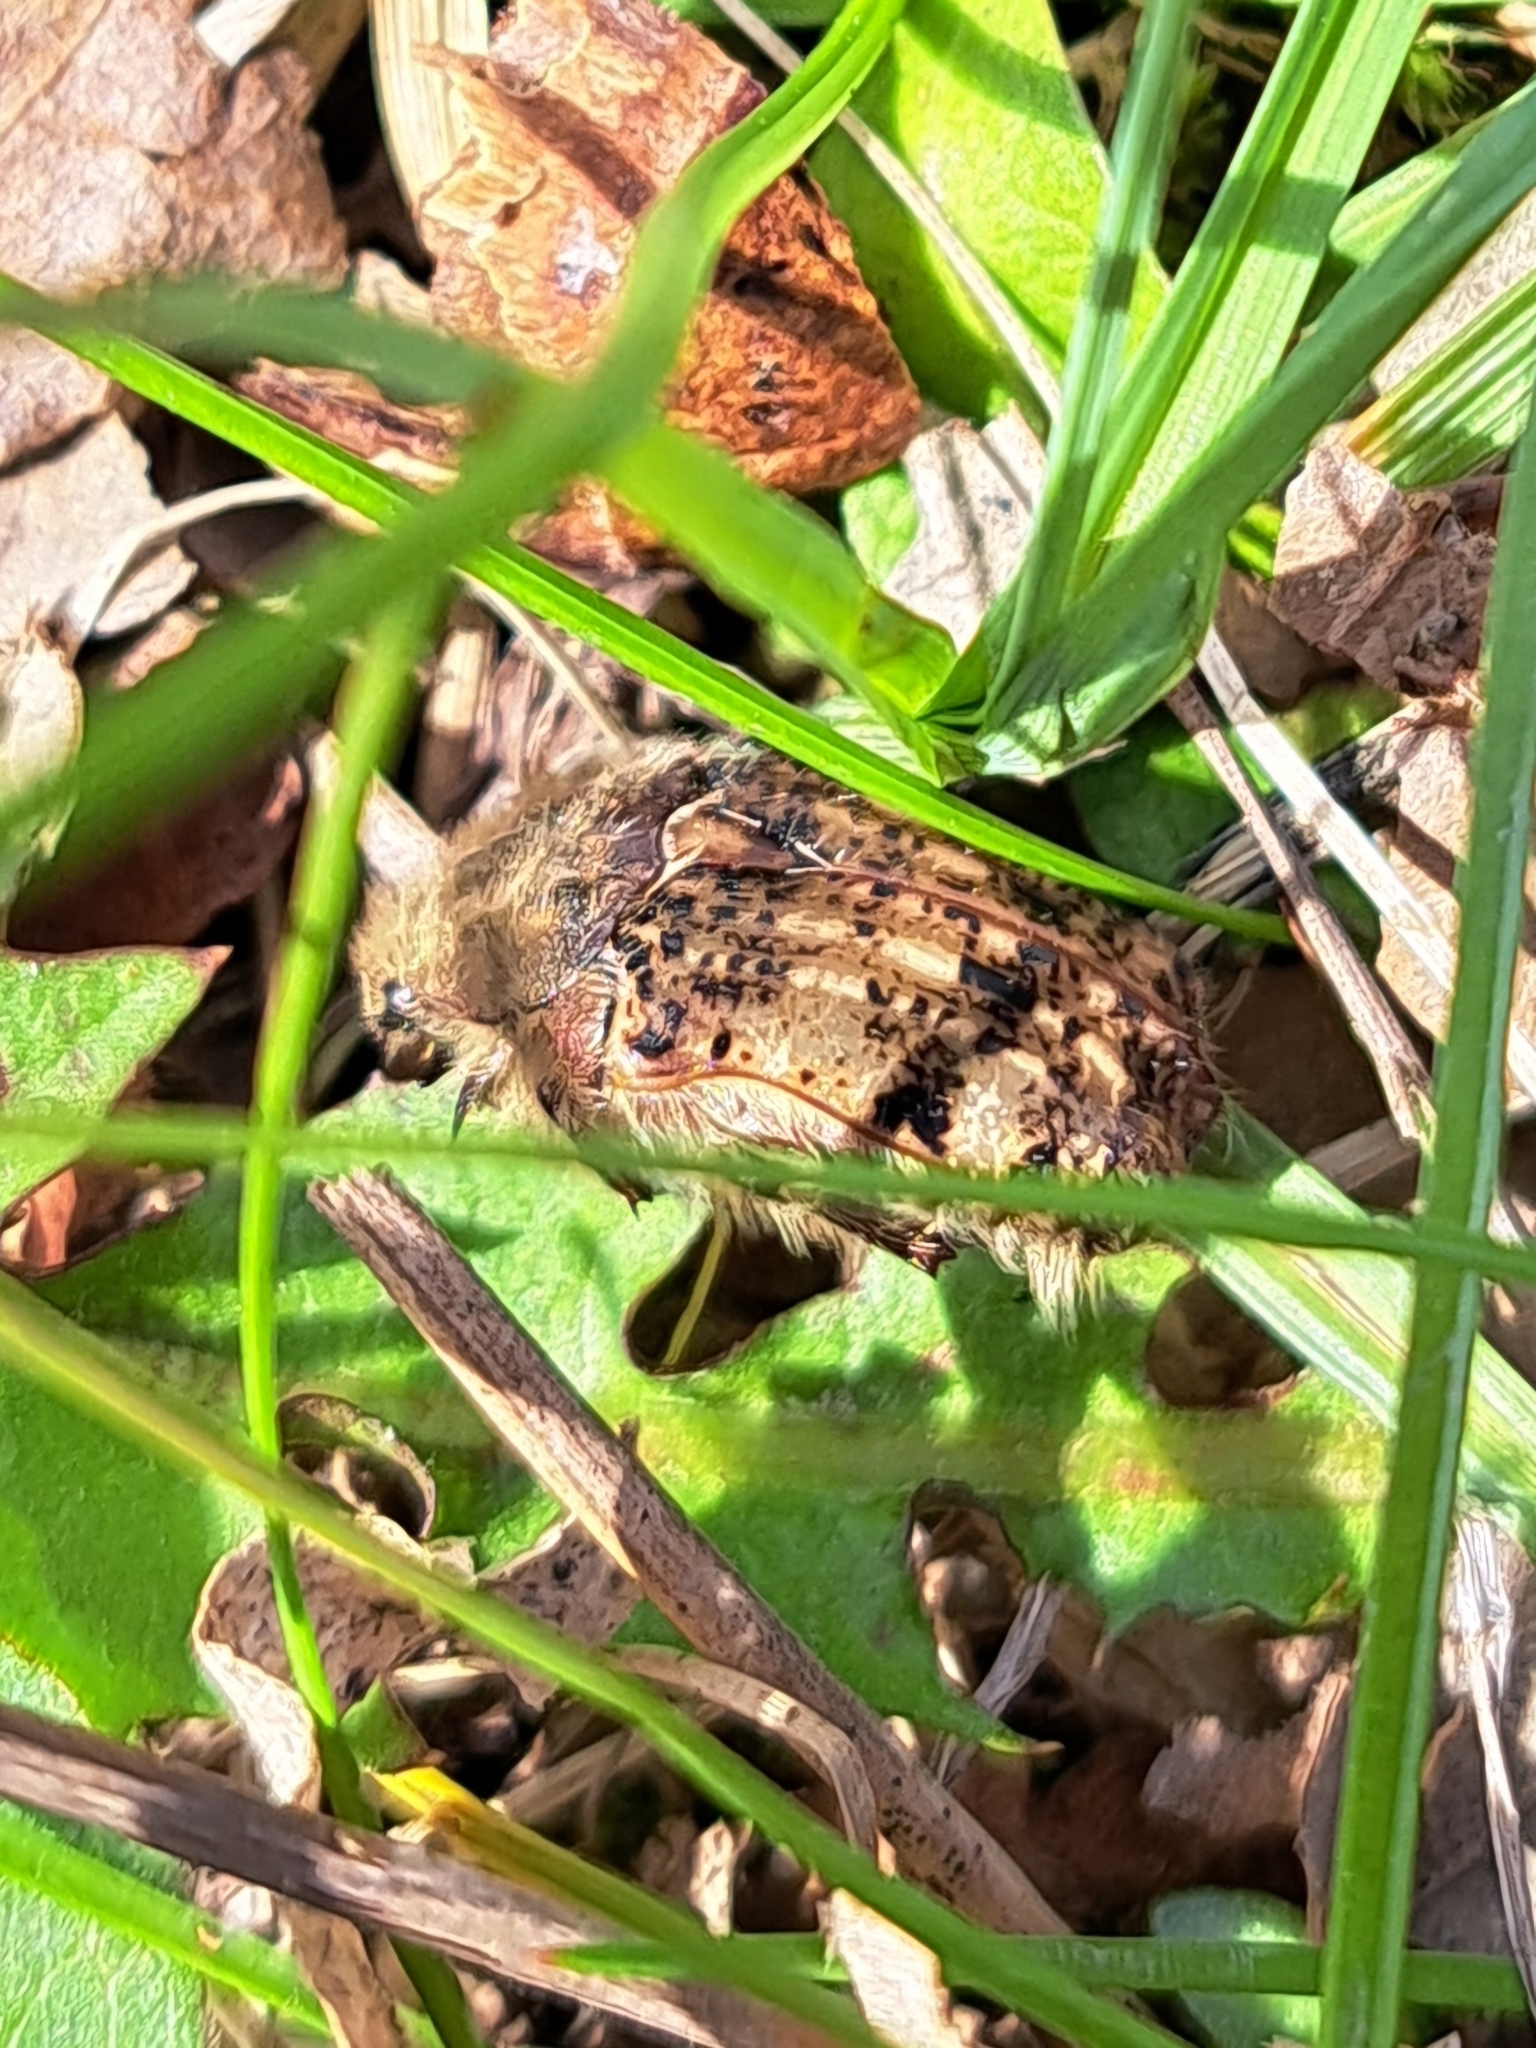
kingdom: Animalia
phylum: Arthropoda
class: Insecta
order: Coleoptera
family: Scarabaeidae
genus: Euphoria
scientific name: Euphoria inda
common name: Bumble flower beetle
